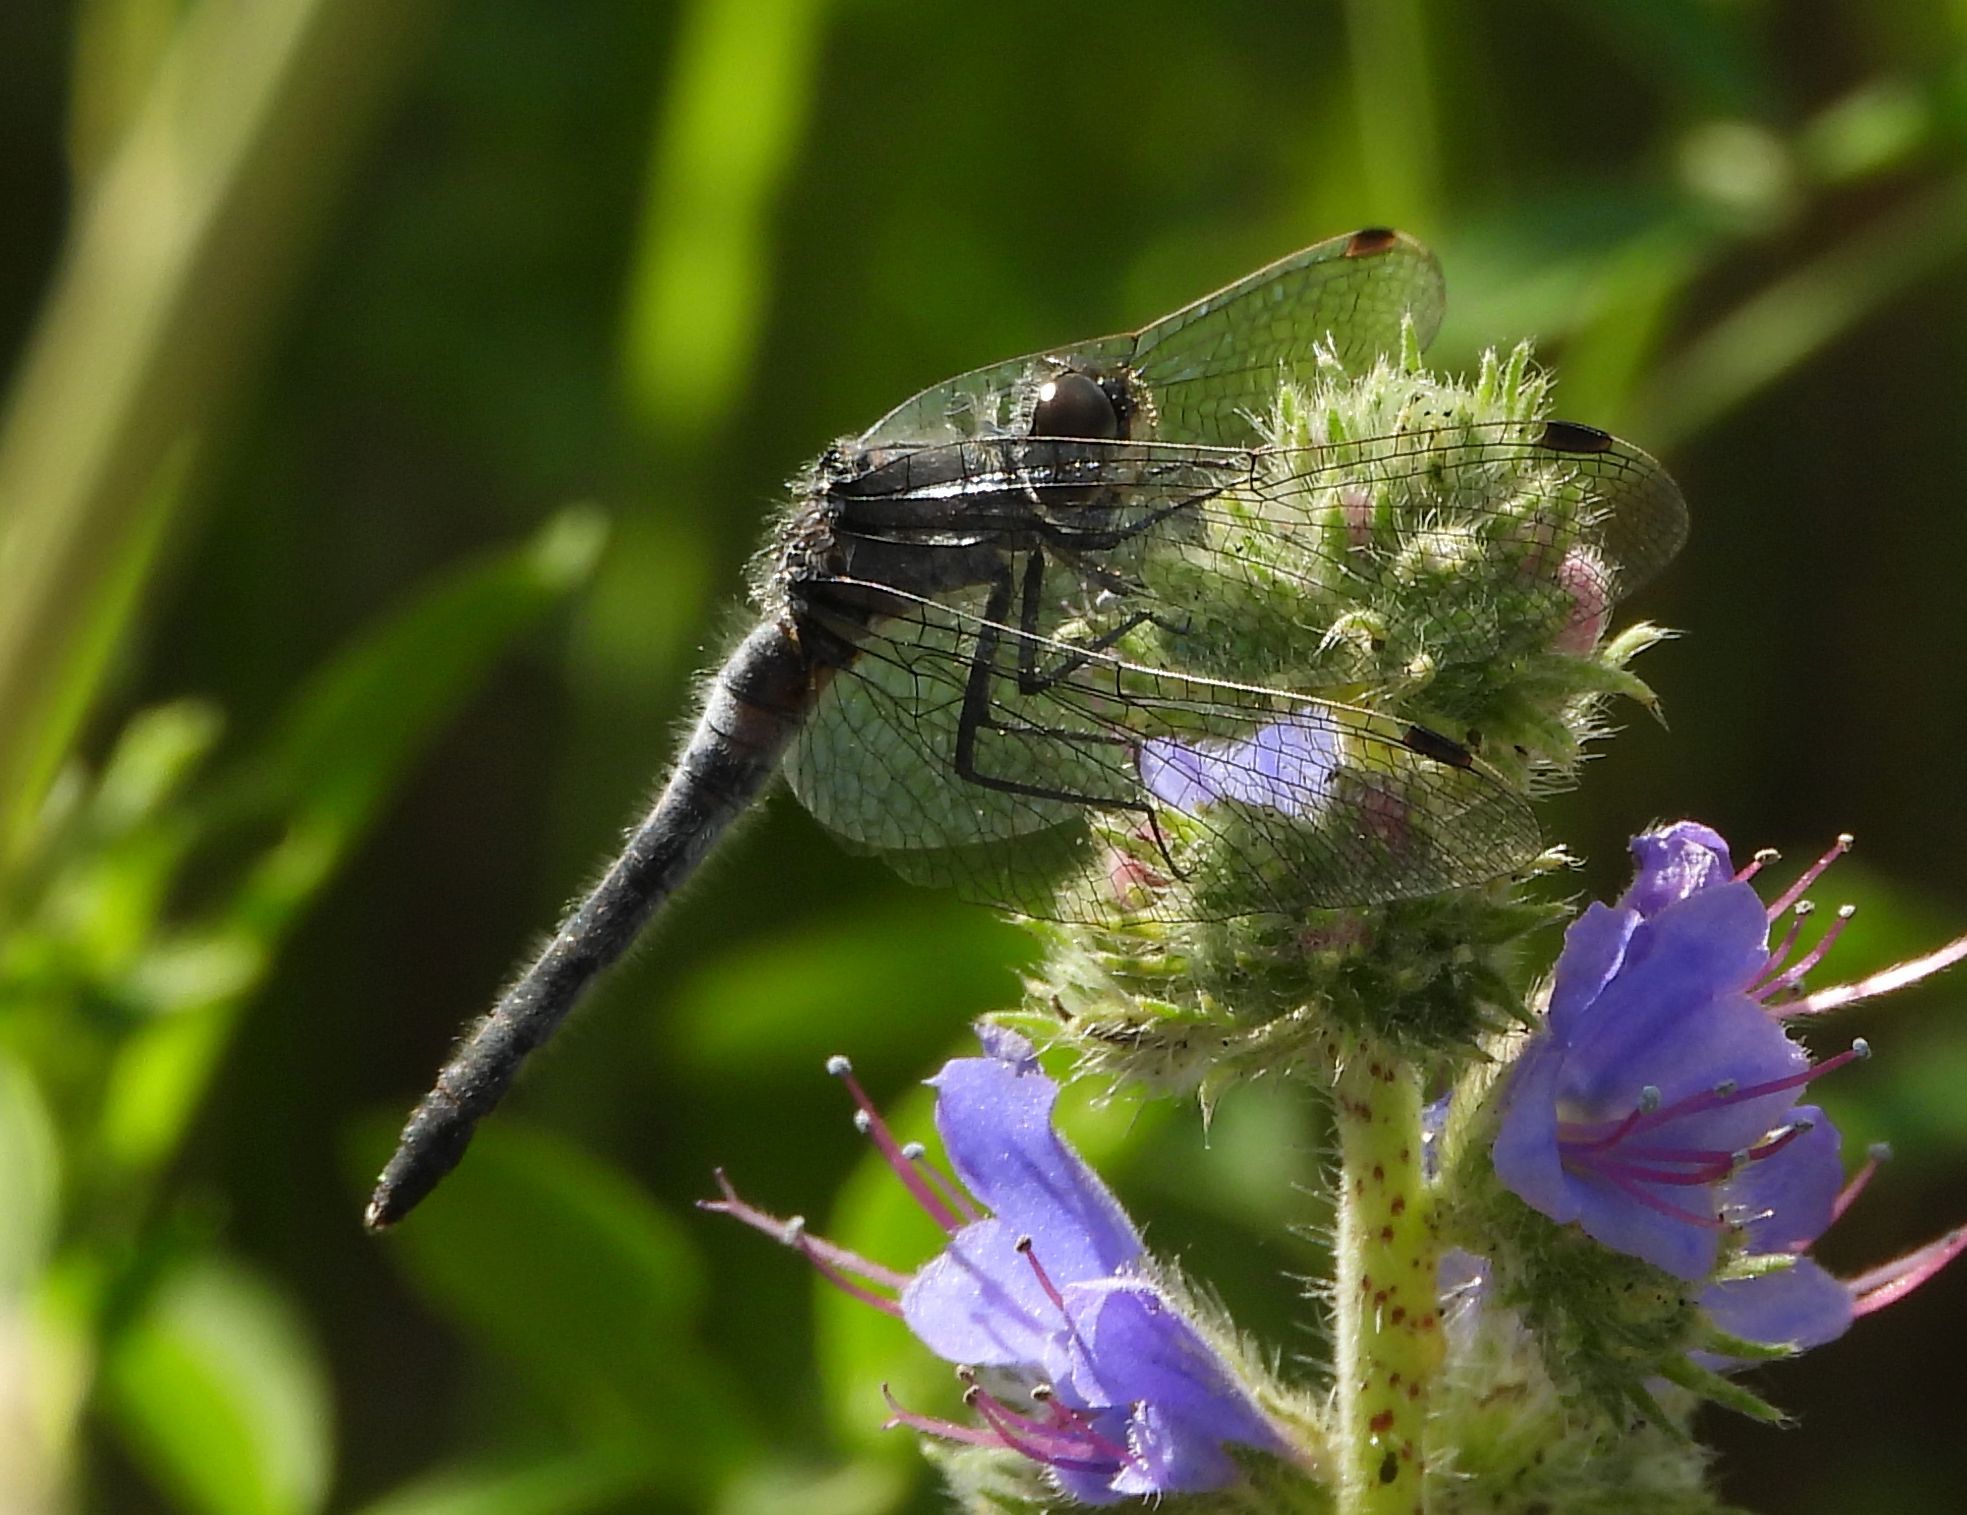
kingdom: Animalia
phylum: Arthropoda
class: Insecta
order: Odonata
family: Libellulidae
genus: Leucorrhinia
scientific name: Leucorrhinia frigida
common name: Frosted whiteface
